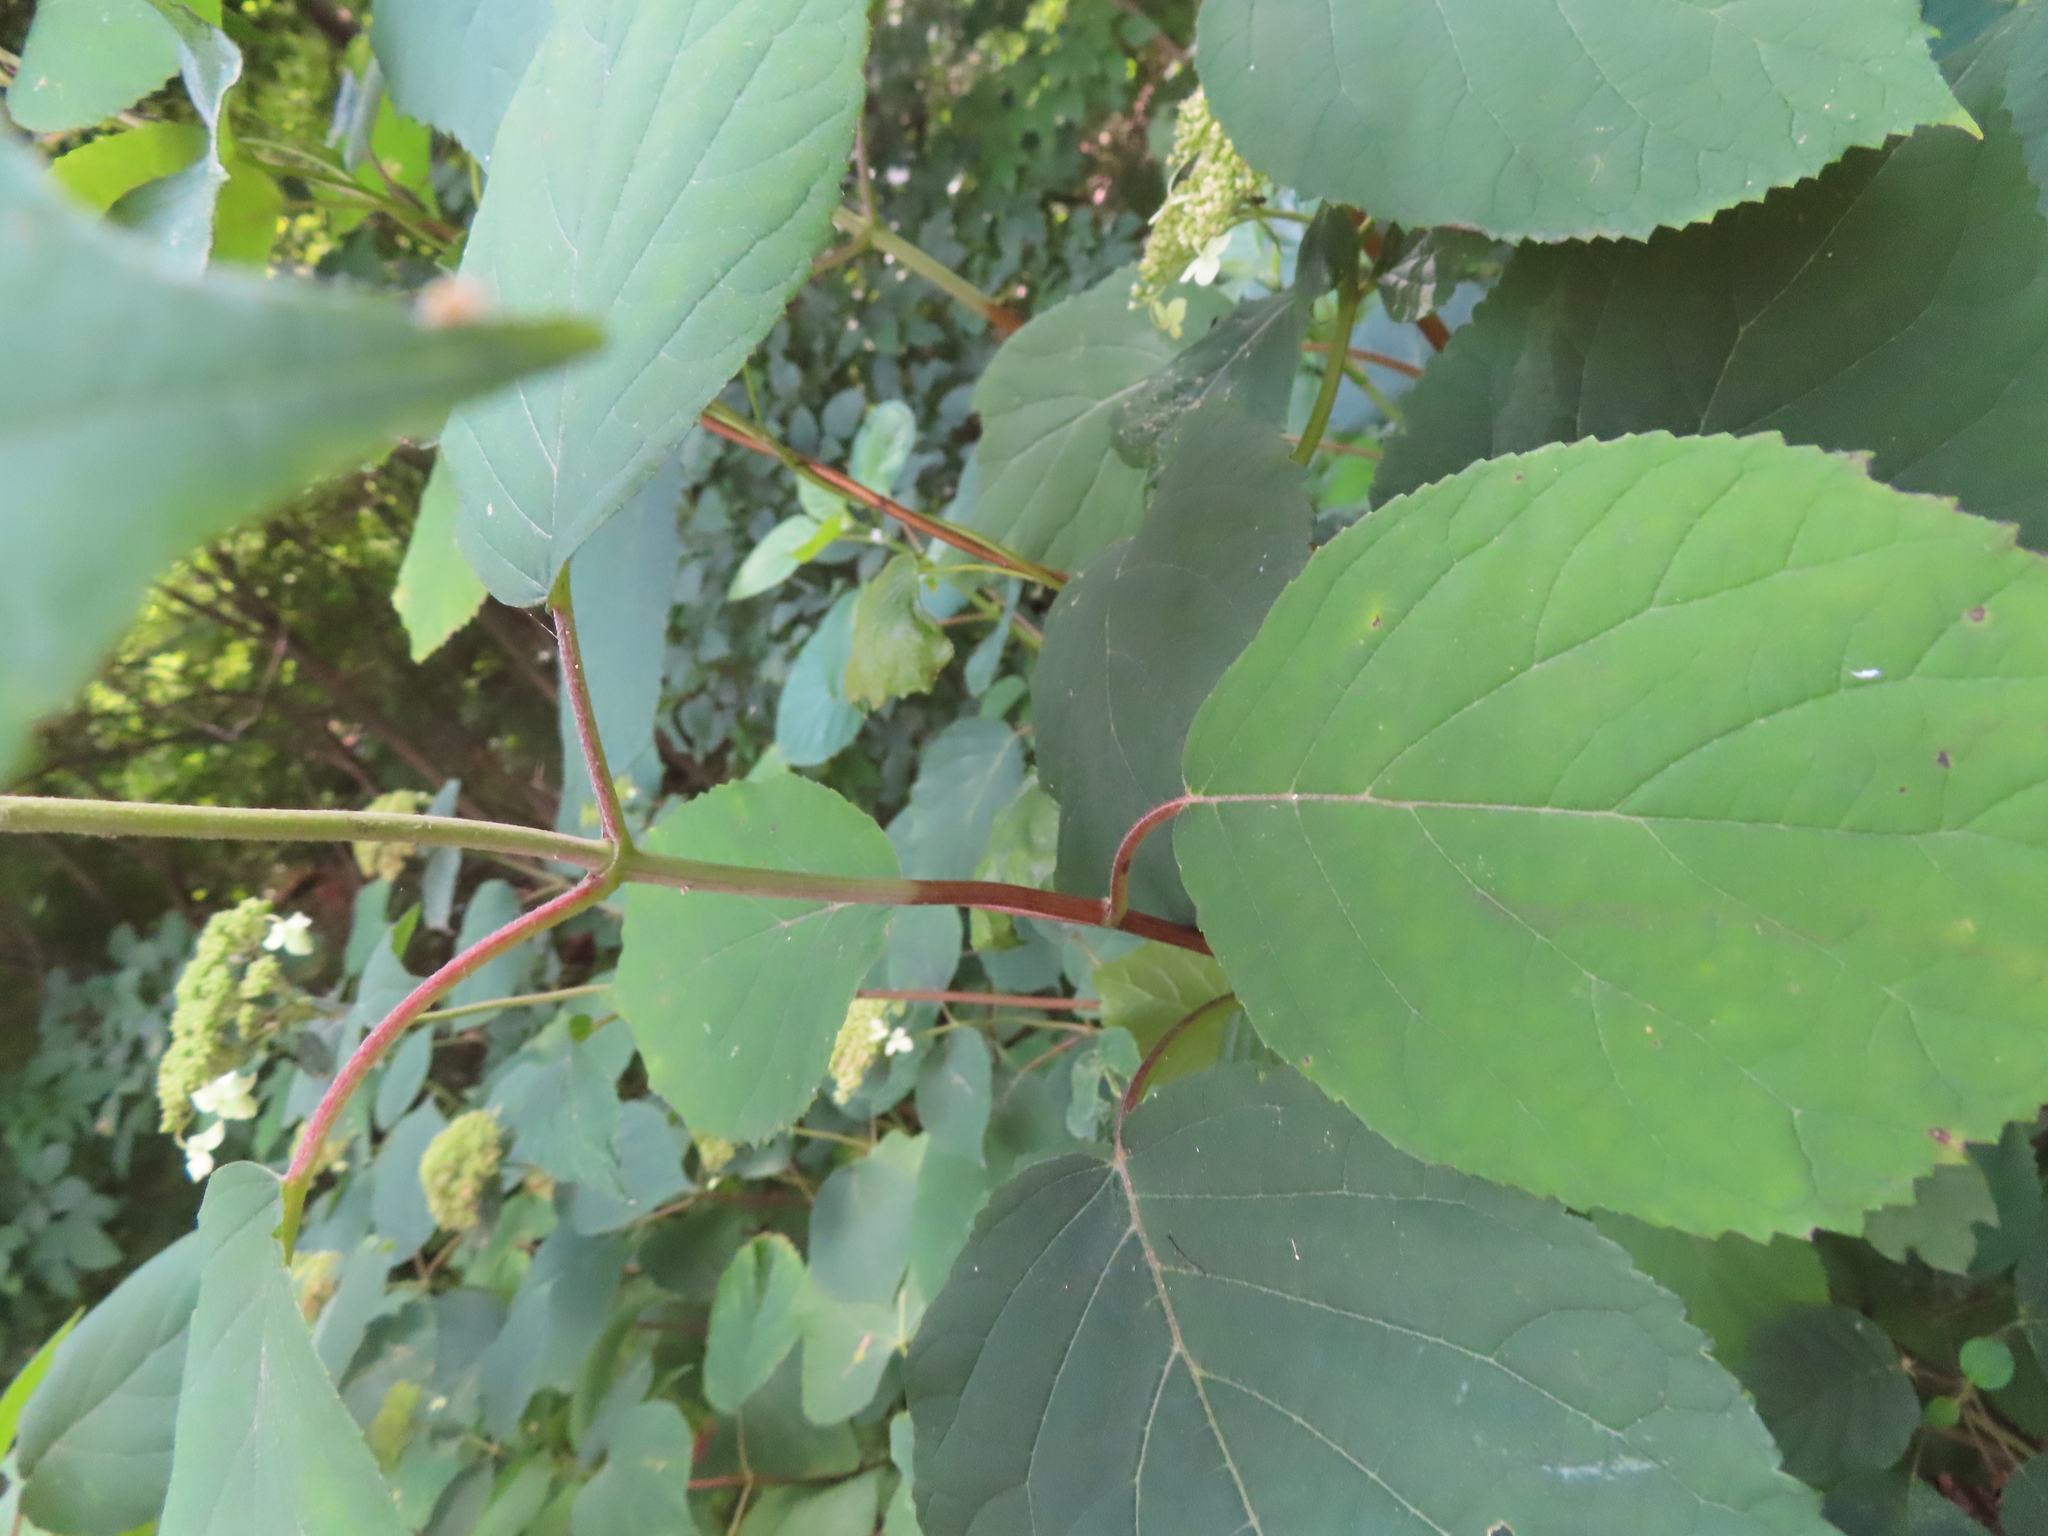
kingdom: Plantae
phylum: Tracheophyta
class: Magnoliopsida
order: Cornales
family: Hydrangeaceae
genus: Hydrangea
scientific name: Hydrangea arborescens
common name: Sevenbark
